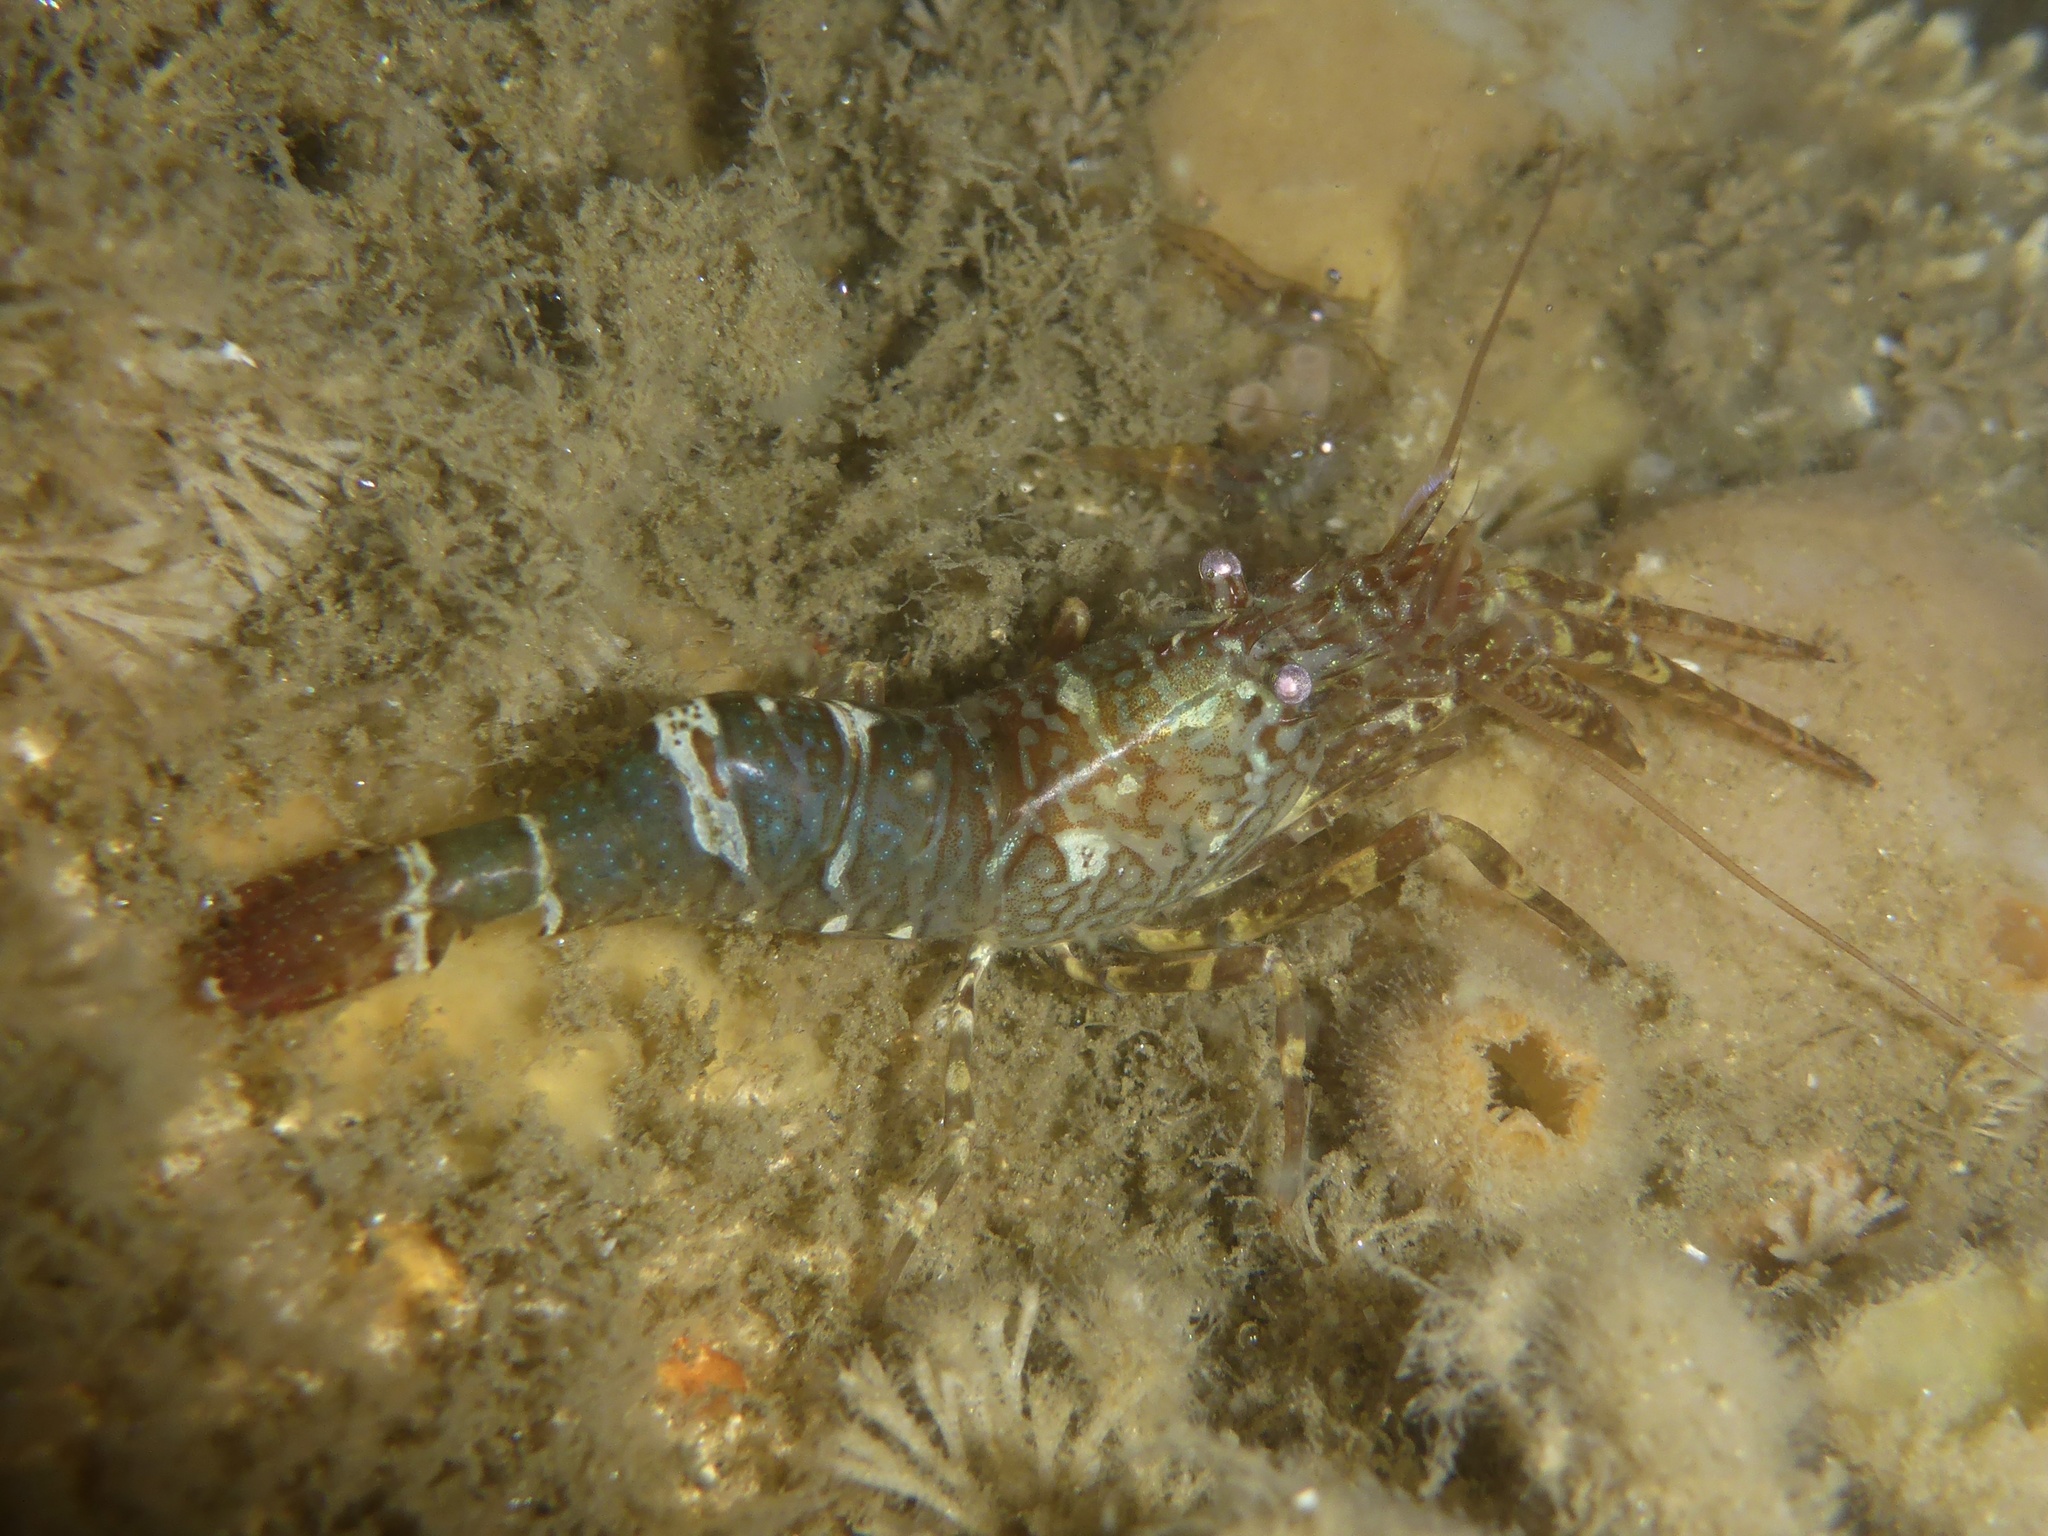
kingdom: Animalia
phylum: Arthropoda
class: Malacostraca
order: Decapoda
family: Thoridae
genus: Heptacarpus
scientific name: Heptacarpus brevirostris
